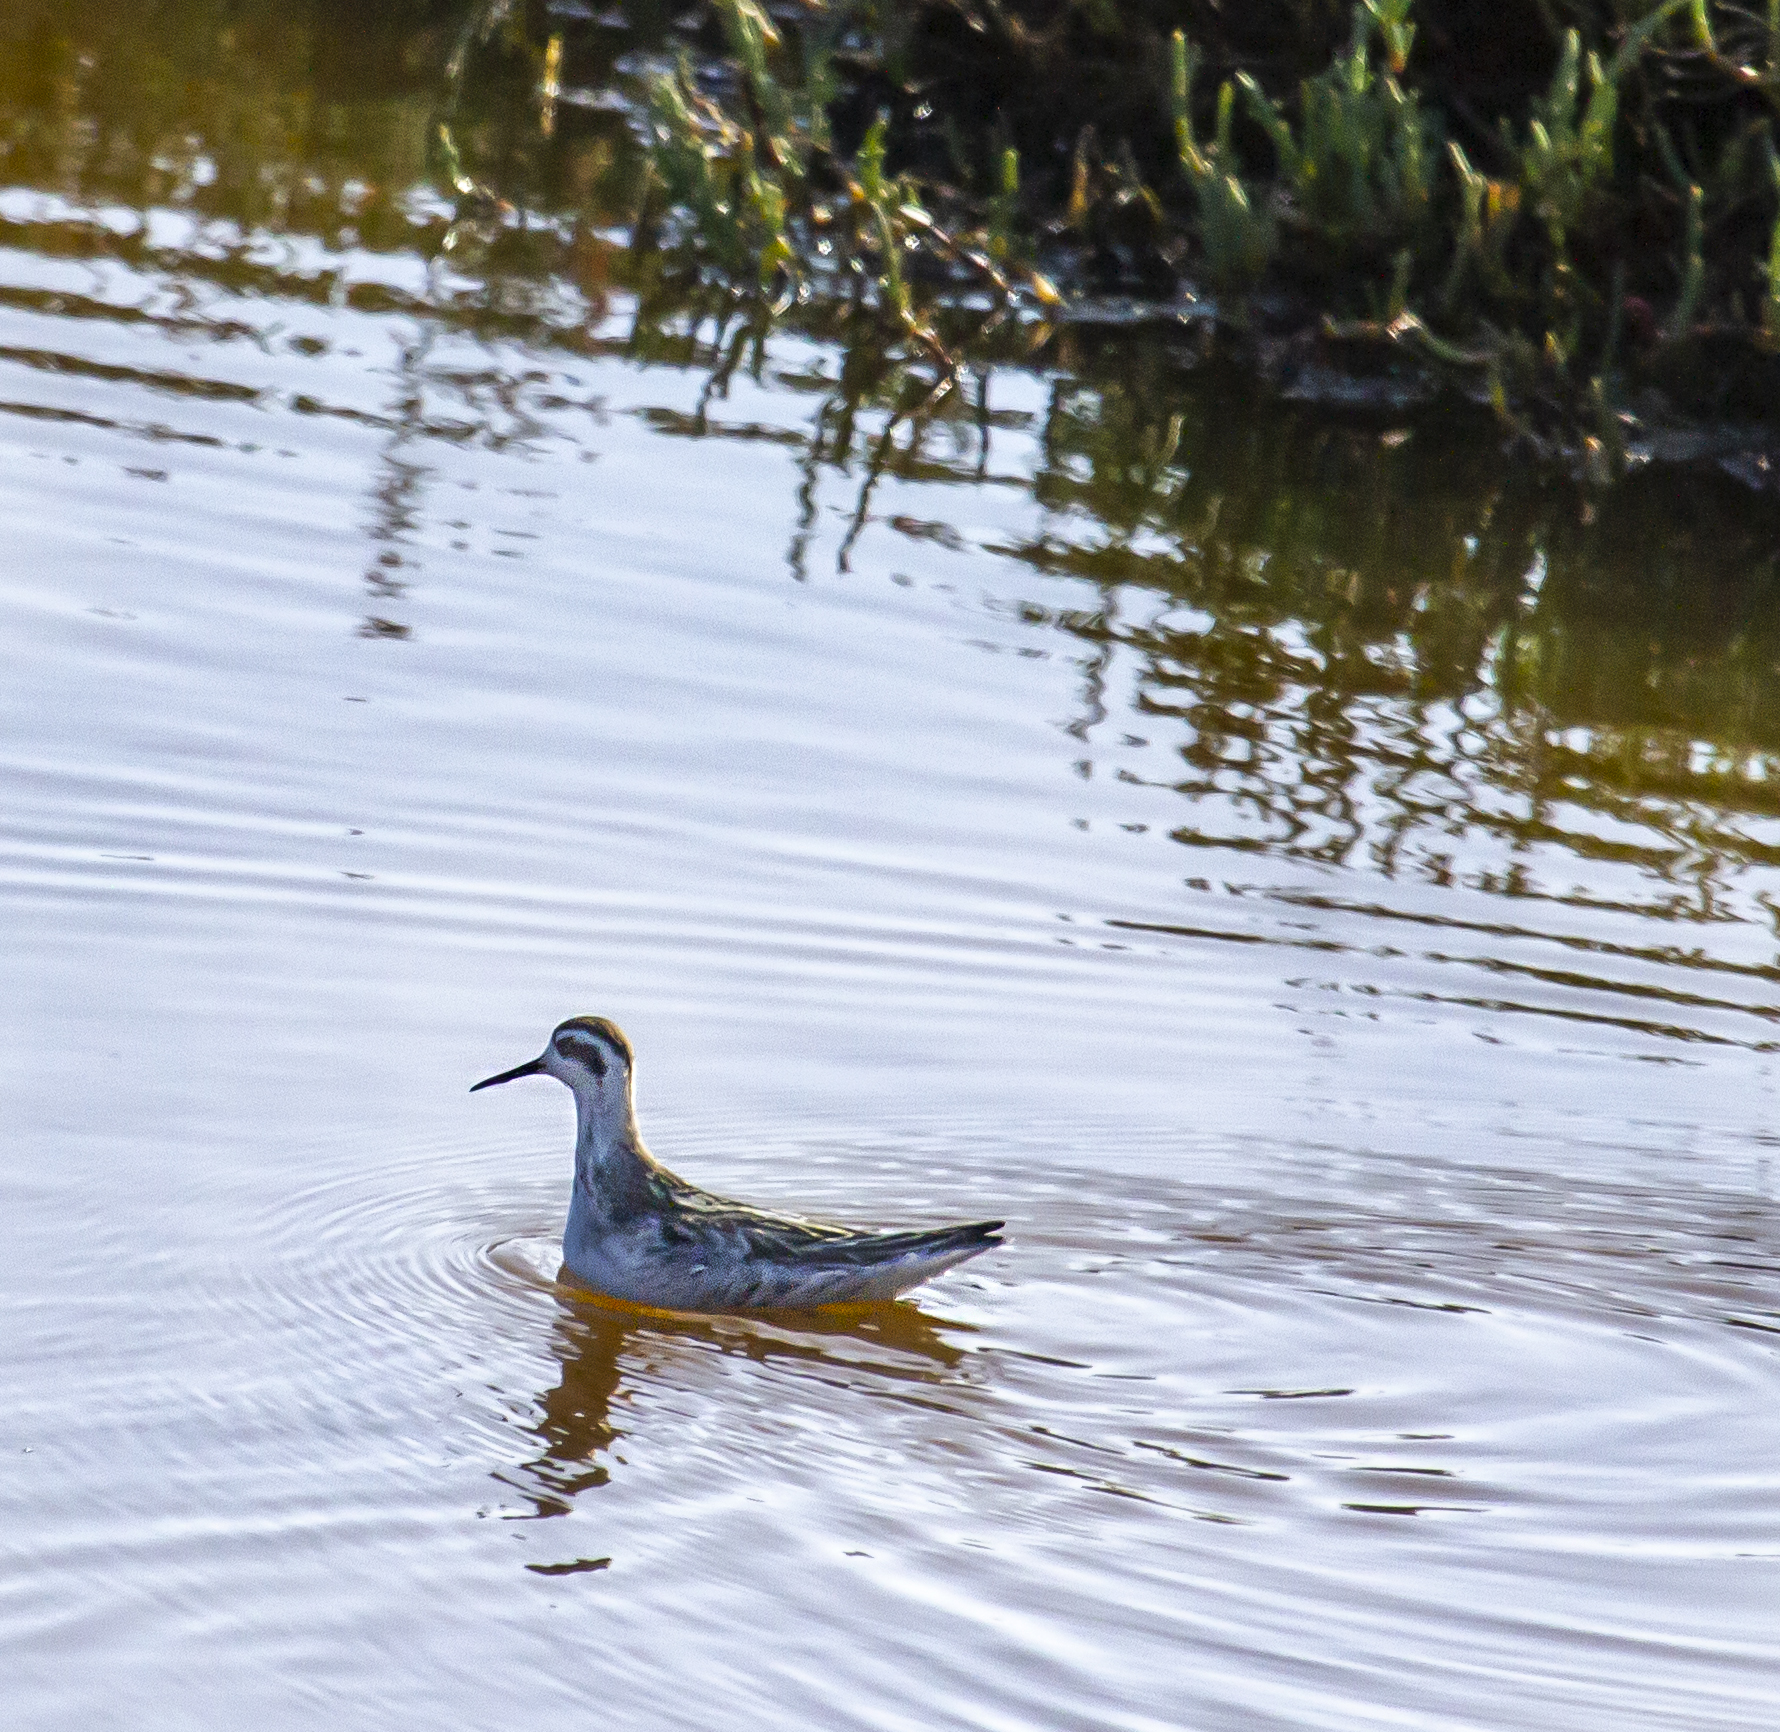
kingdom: Animalia
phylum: Chordata
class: Aves
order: Charadriiformes
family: Scolopacidae
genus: Phalaropus
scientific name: Phalaropus lobatus
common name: Red-necked phalarope
